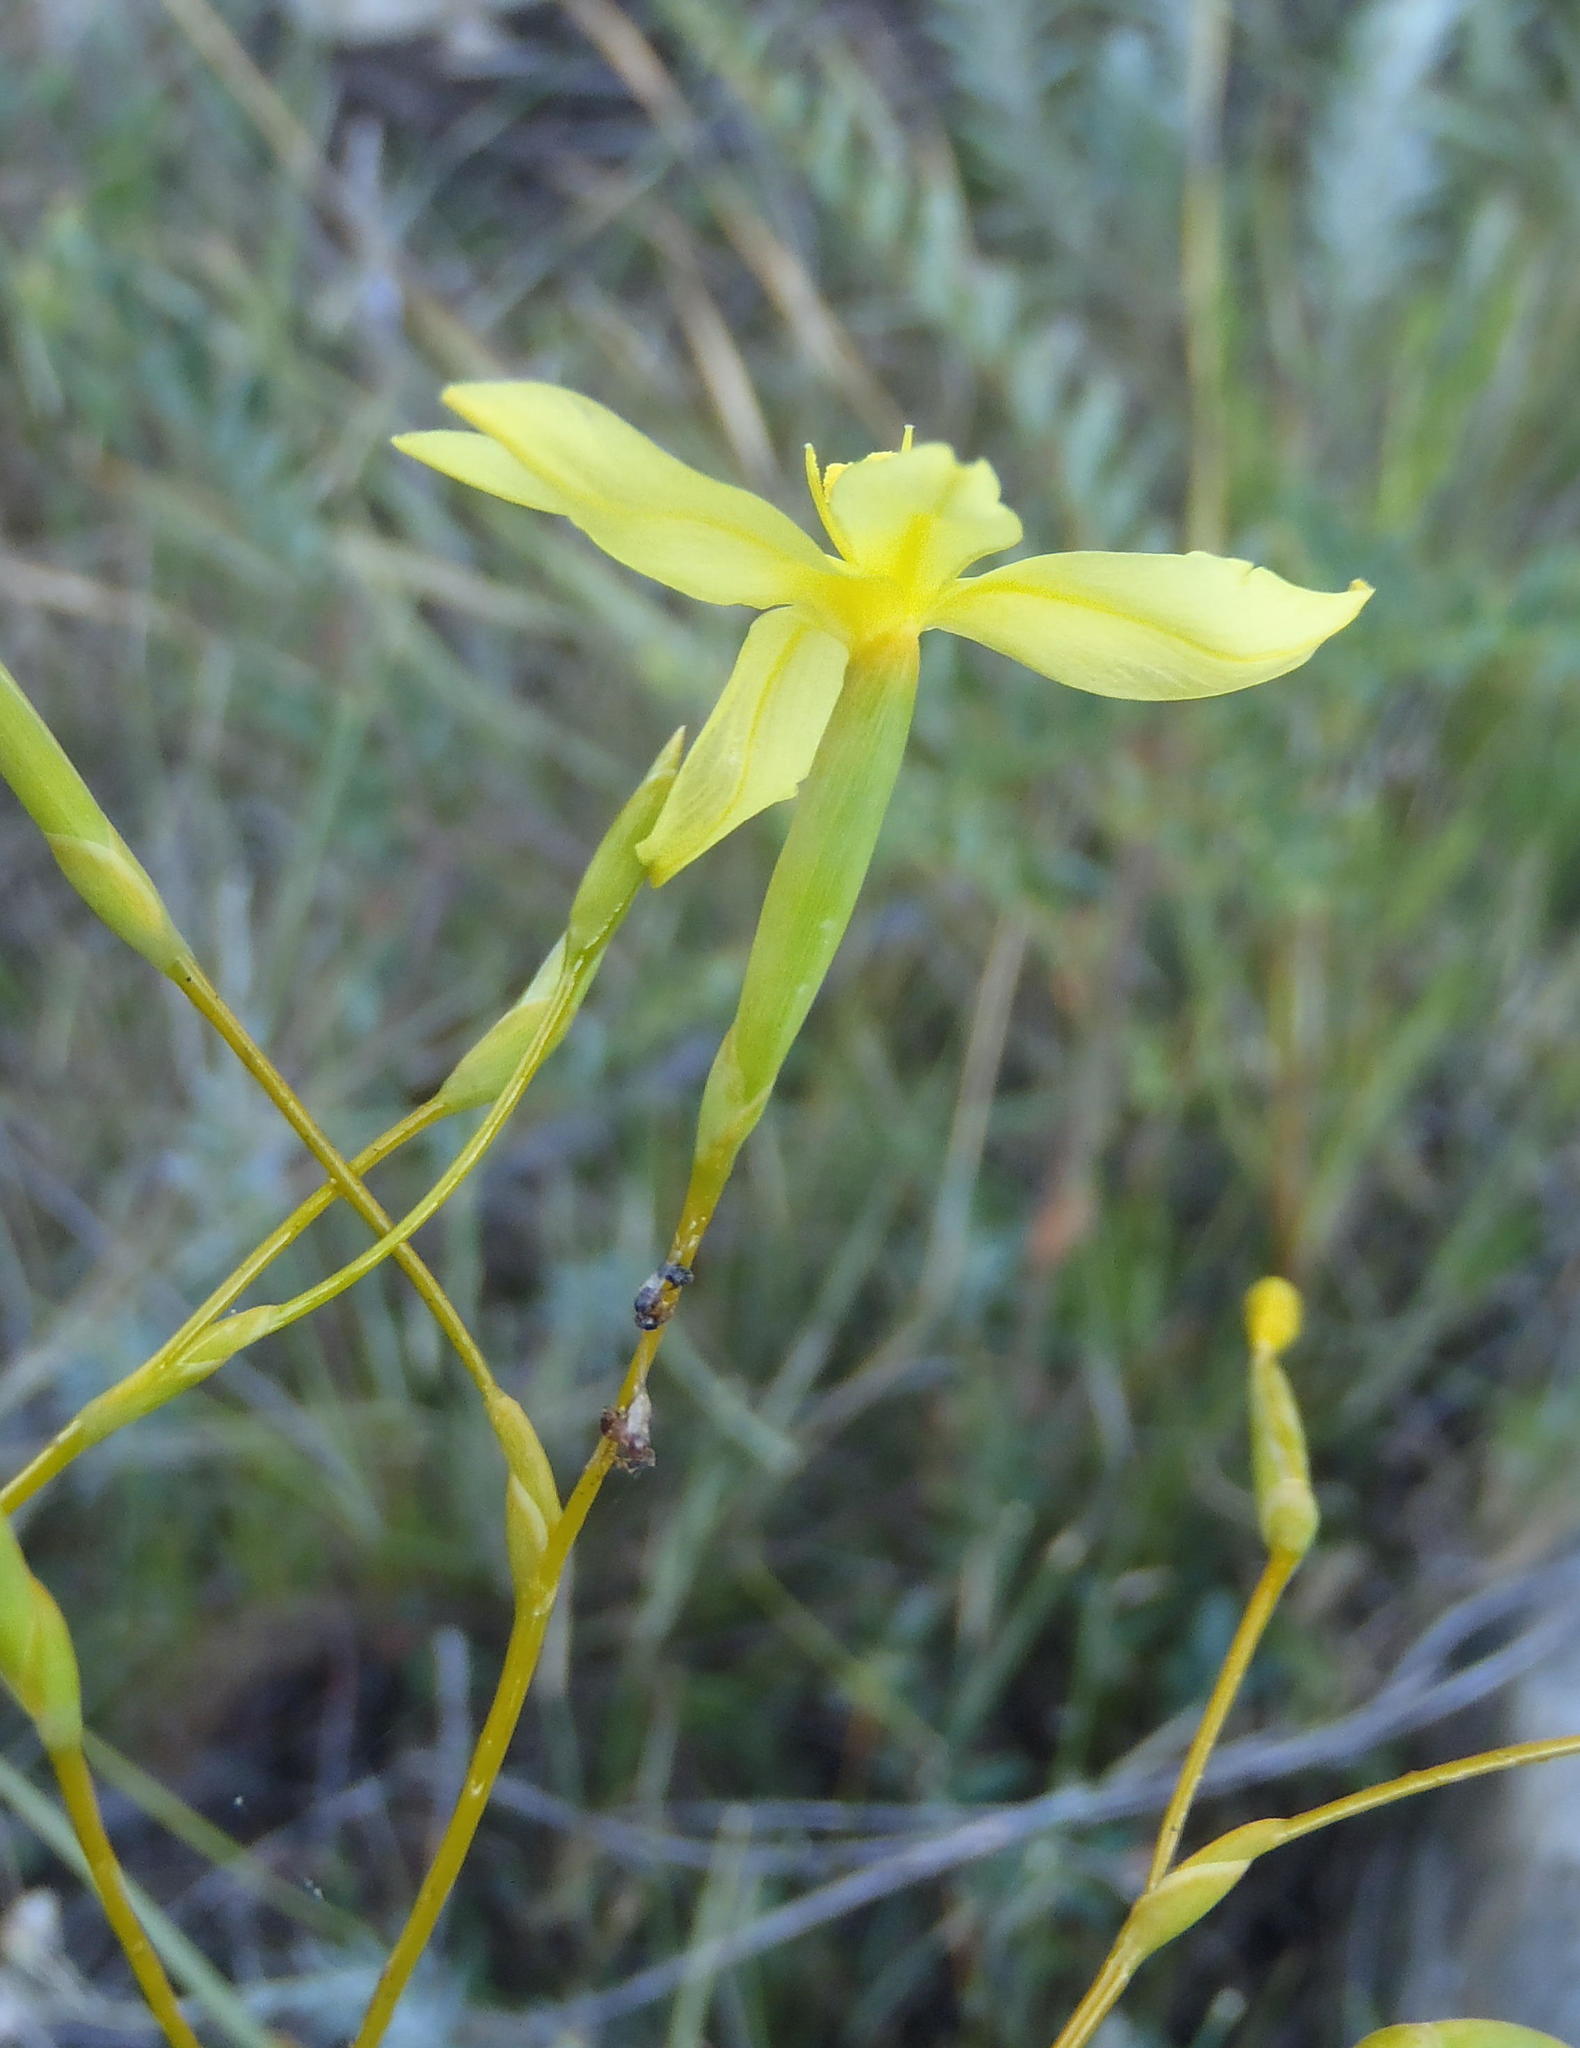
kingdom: Plantae
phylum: Tracheophyta
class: Liliopsida
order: Asparagales
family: Iridaceae
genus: Bobartia
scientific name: Bobartia paniculata
